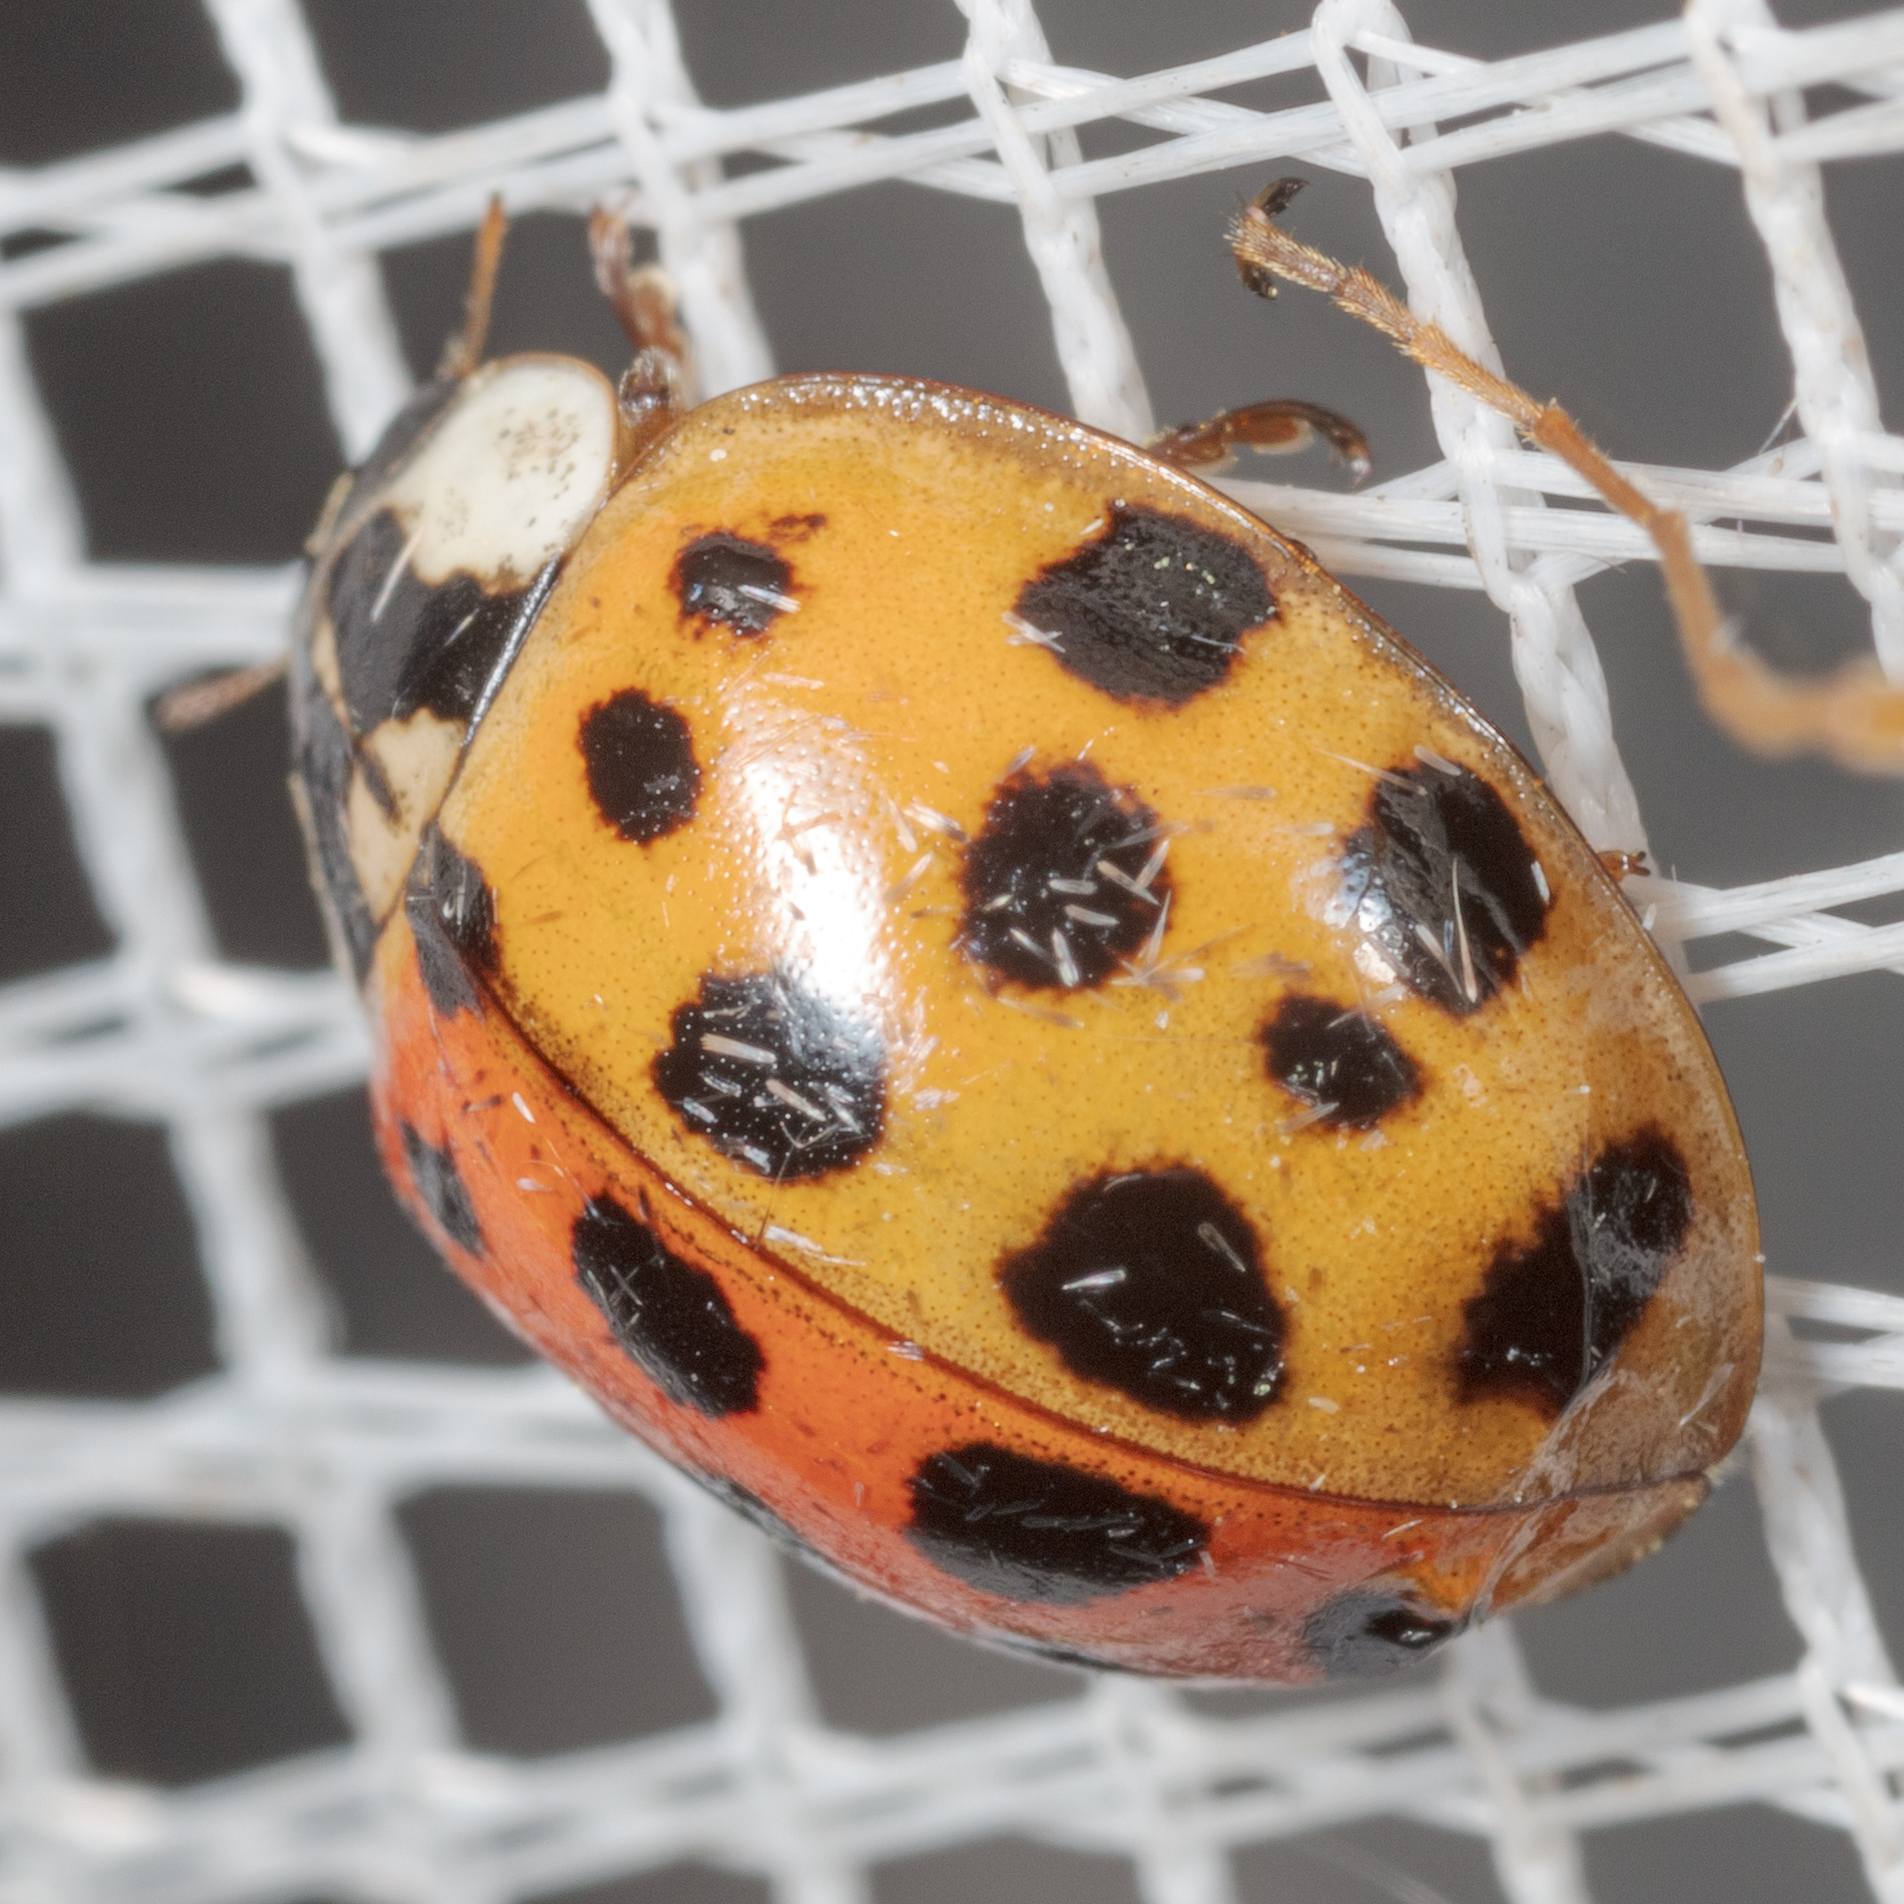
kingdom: Animalia
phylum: Arthropoda
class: Insecta
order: Coleoptera
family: Coccinellidae
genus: Harmonia
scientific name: Harmonia axyridis
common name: Harlequin ladybird
